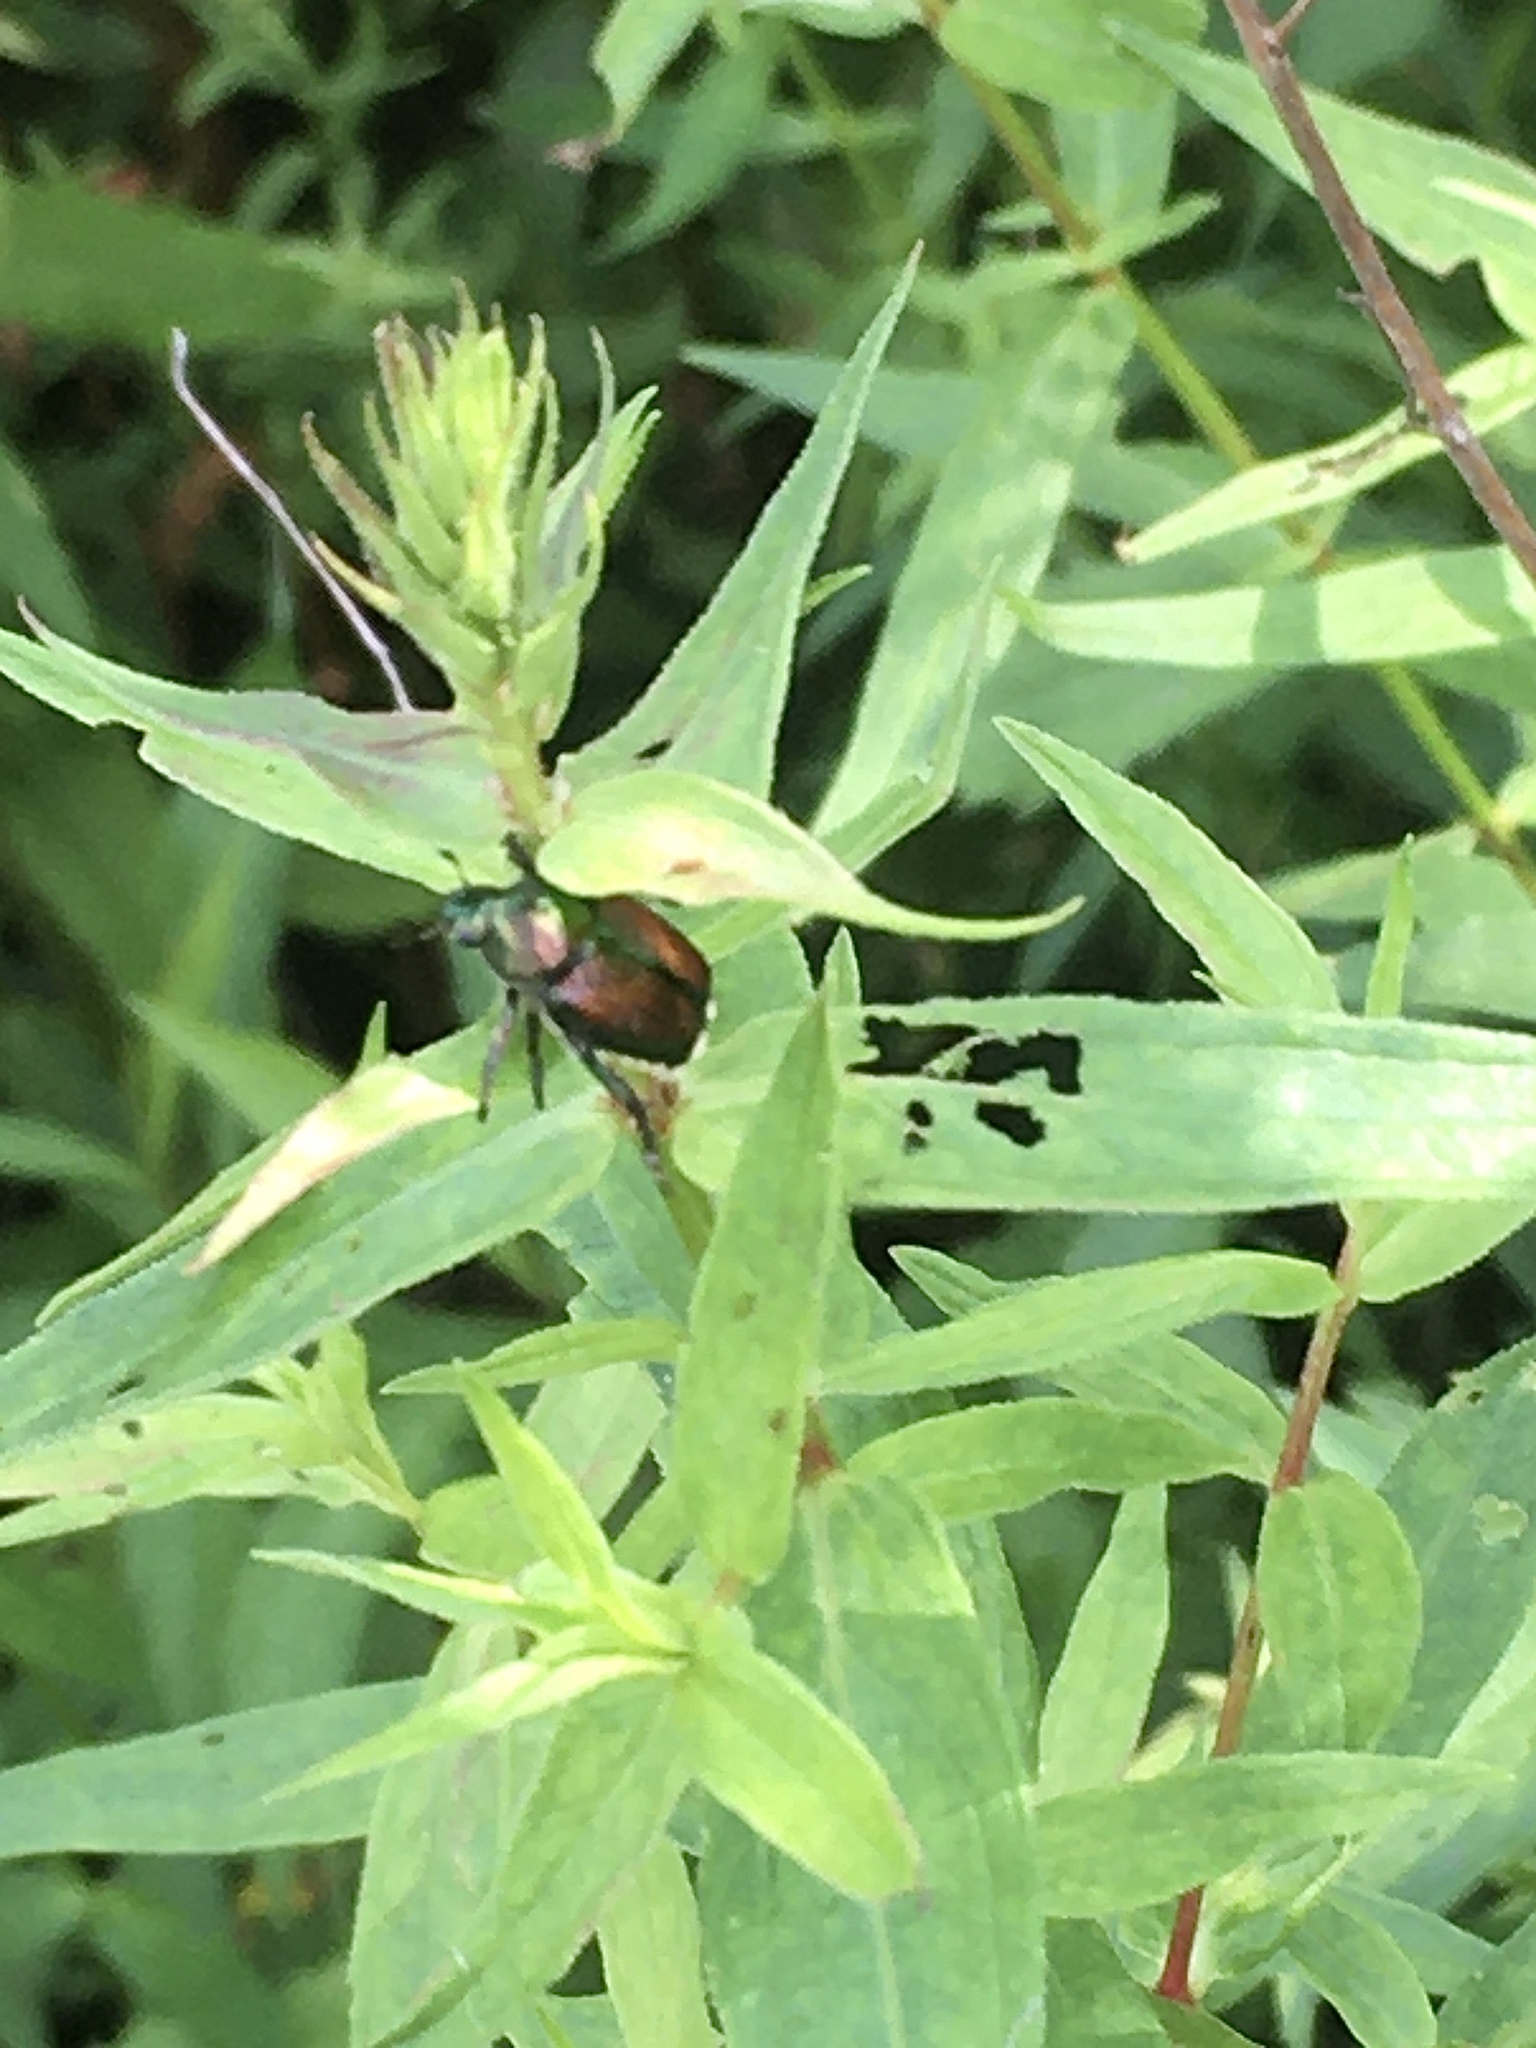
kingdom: Animalia
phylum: Arthropoda
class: Insecta
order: Coleoptera
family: Scarabaeidae
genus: Popillia
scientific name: Popillia japonica
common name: Japanese beetle
